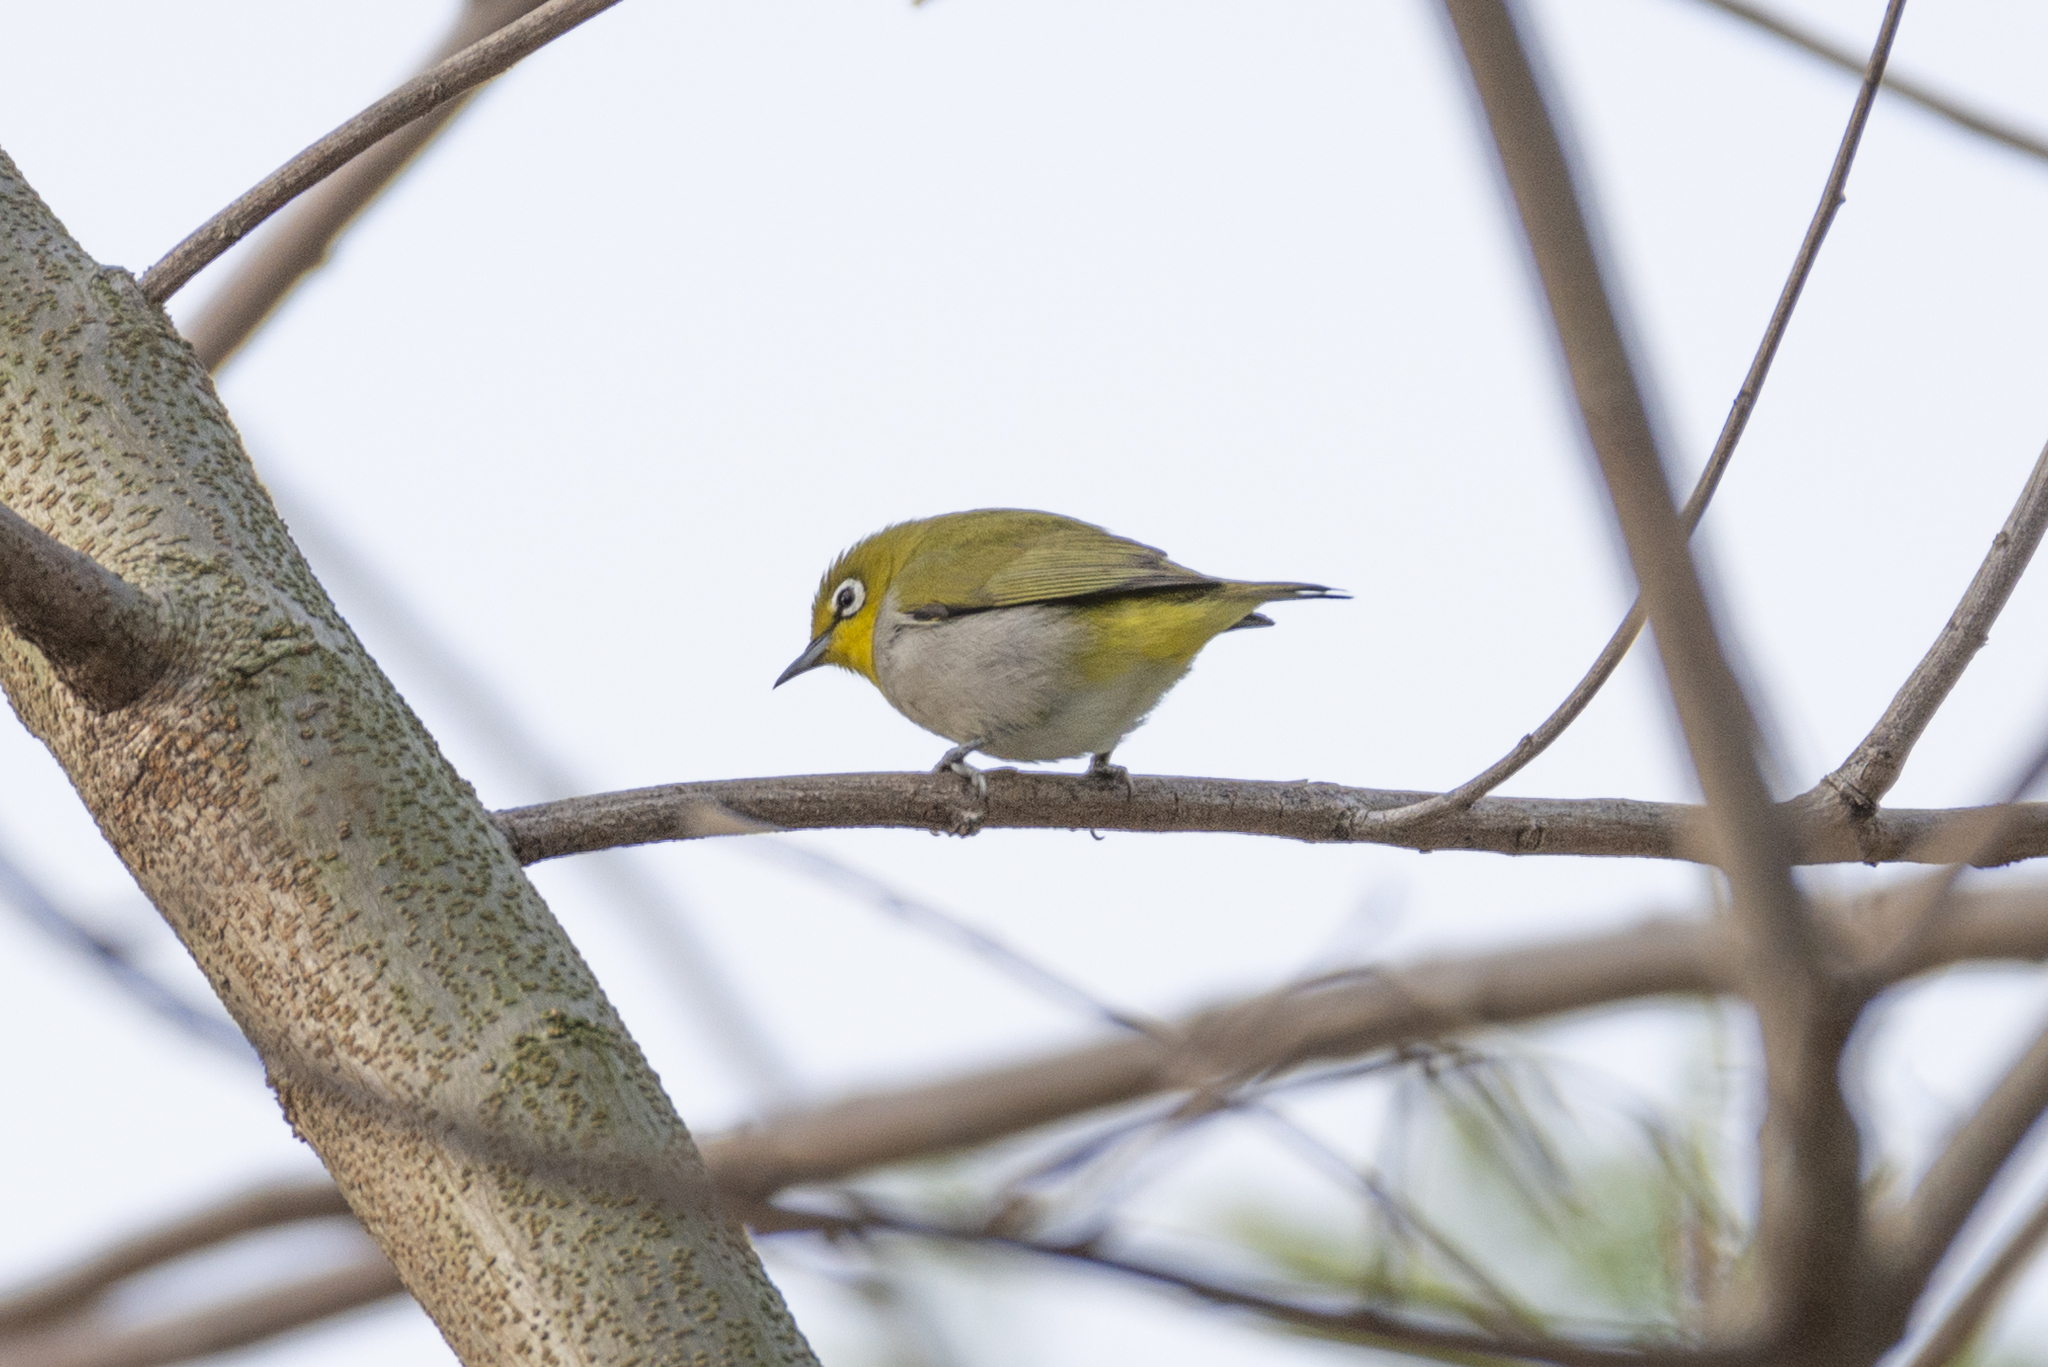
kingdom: Animalia
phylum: Chordata
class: Aves
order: Passeriformes
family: Zosteropidae
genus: Zosterops
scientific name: Zosterops simplex
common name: Swinhoe's white-eye
